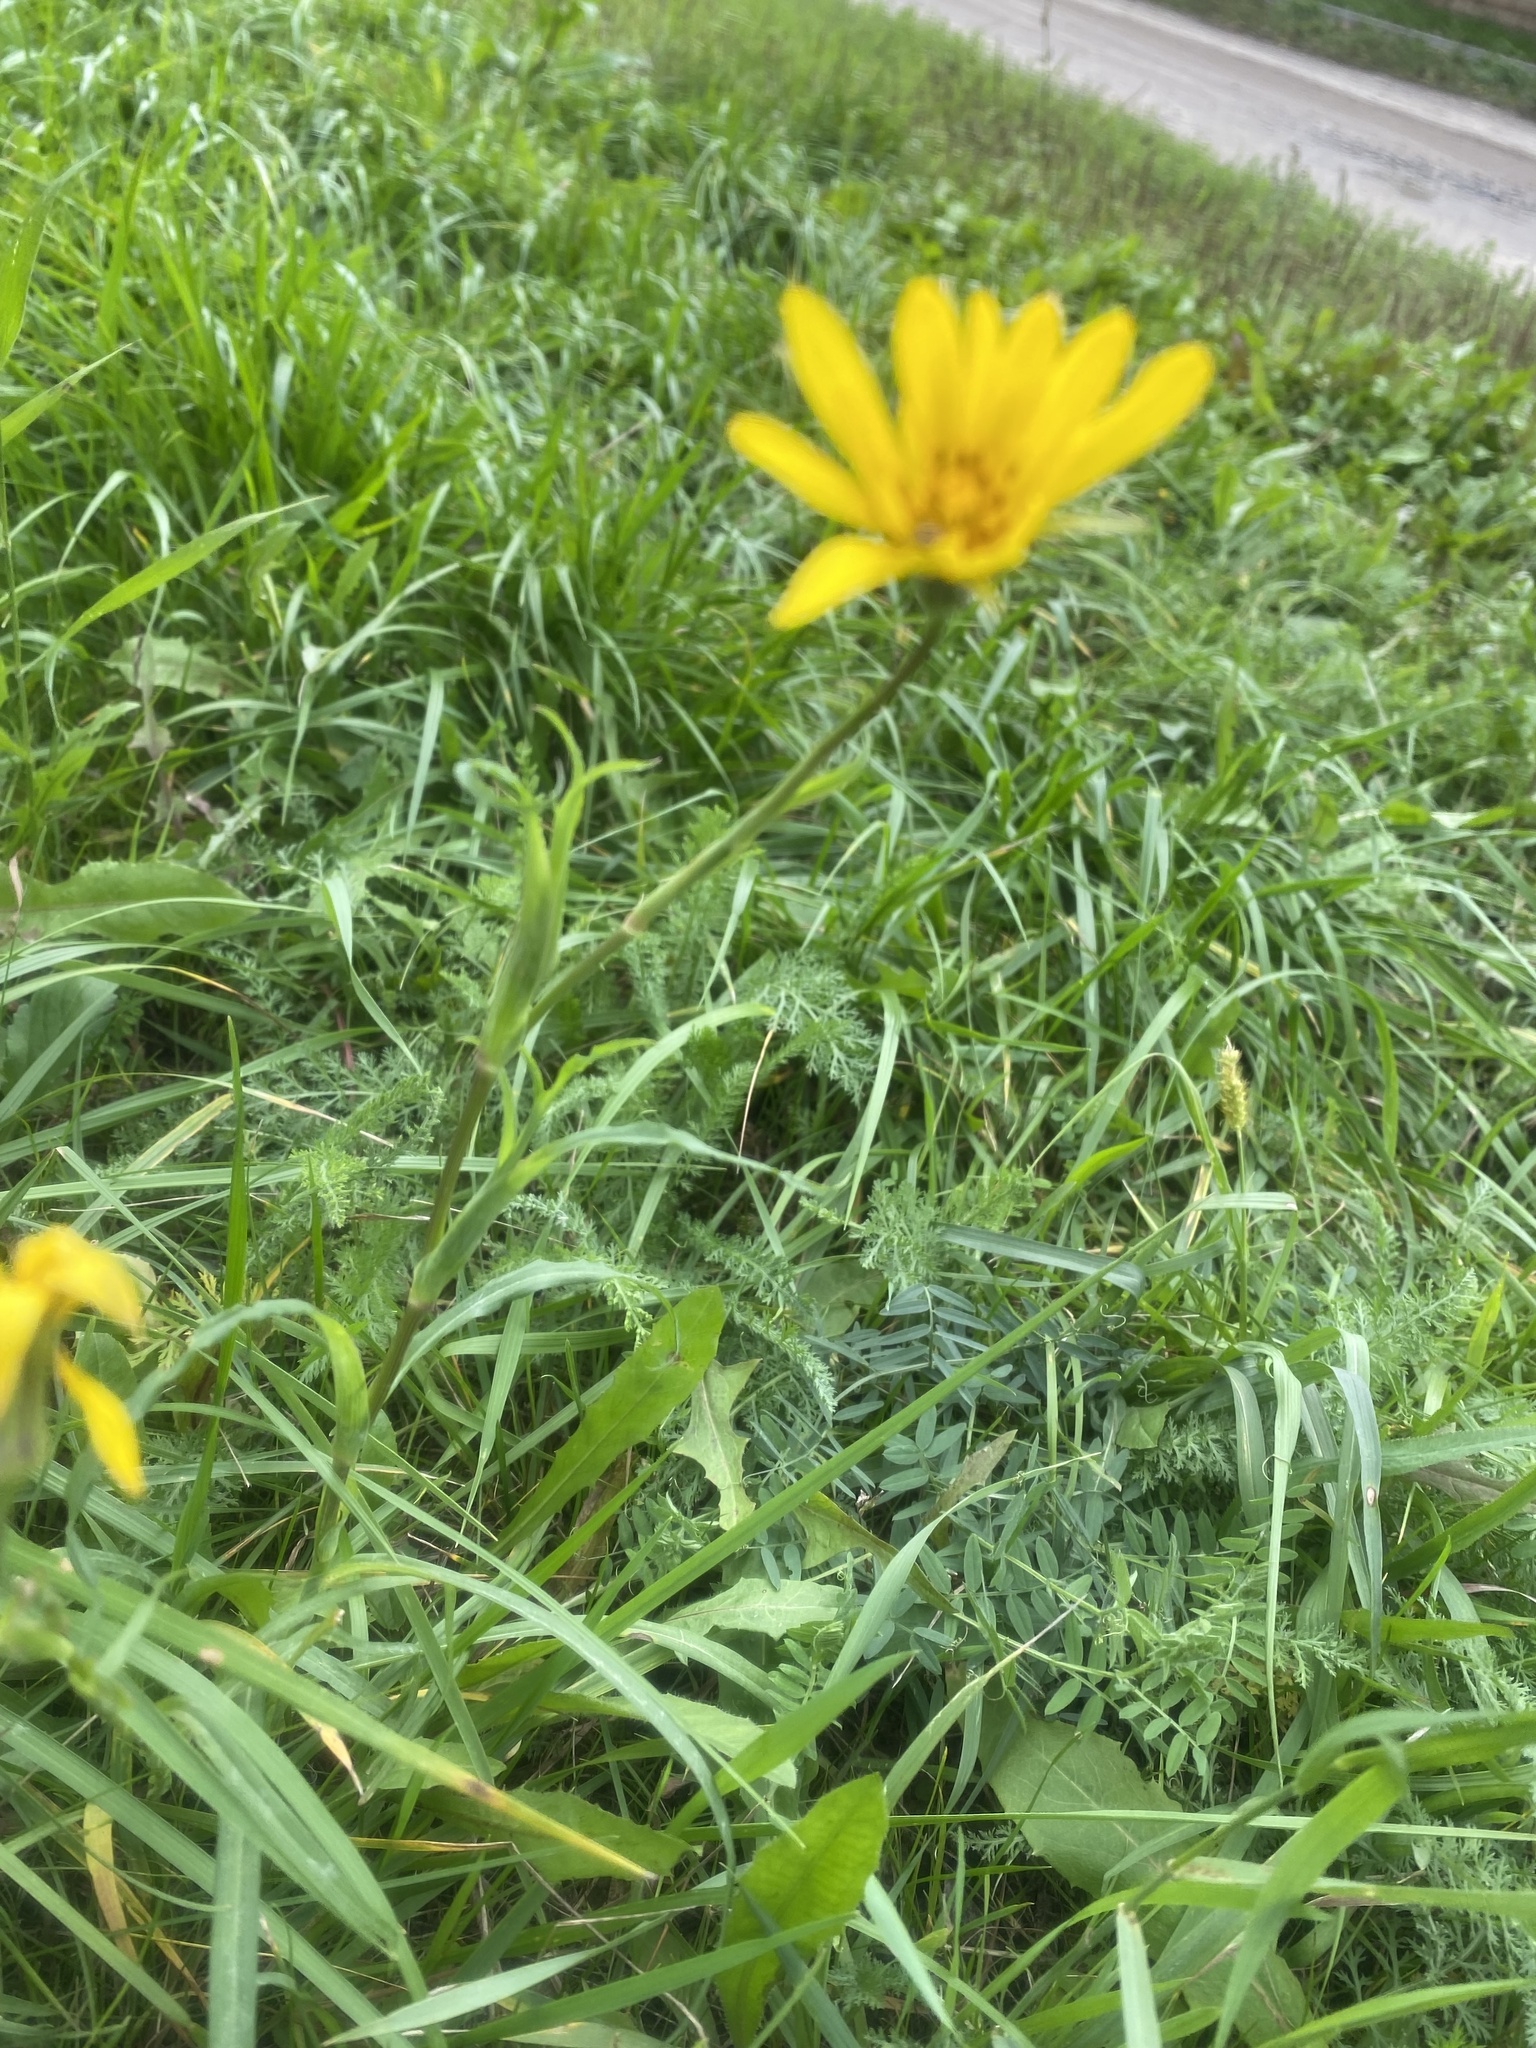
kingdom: Plantae
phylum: Tracheophyta
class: Magnoliopsida
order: Asterales
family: Asteraceae
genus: Tragopogon
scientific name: Tragopogon orientalis
